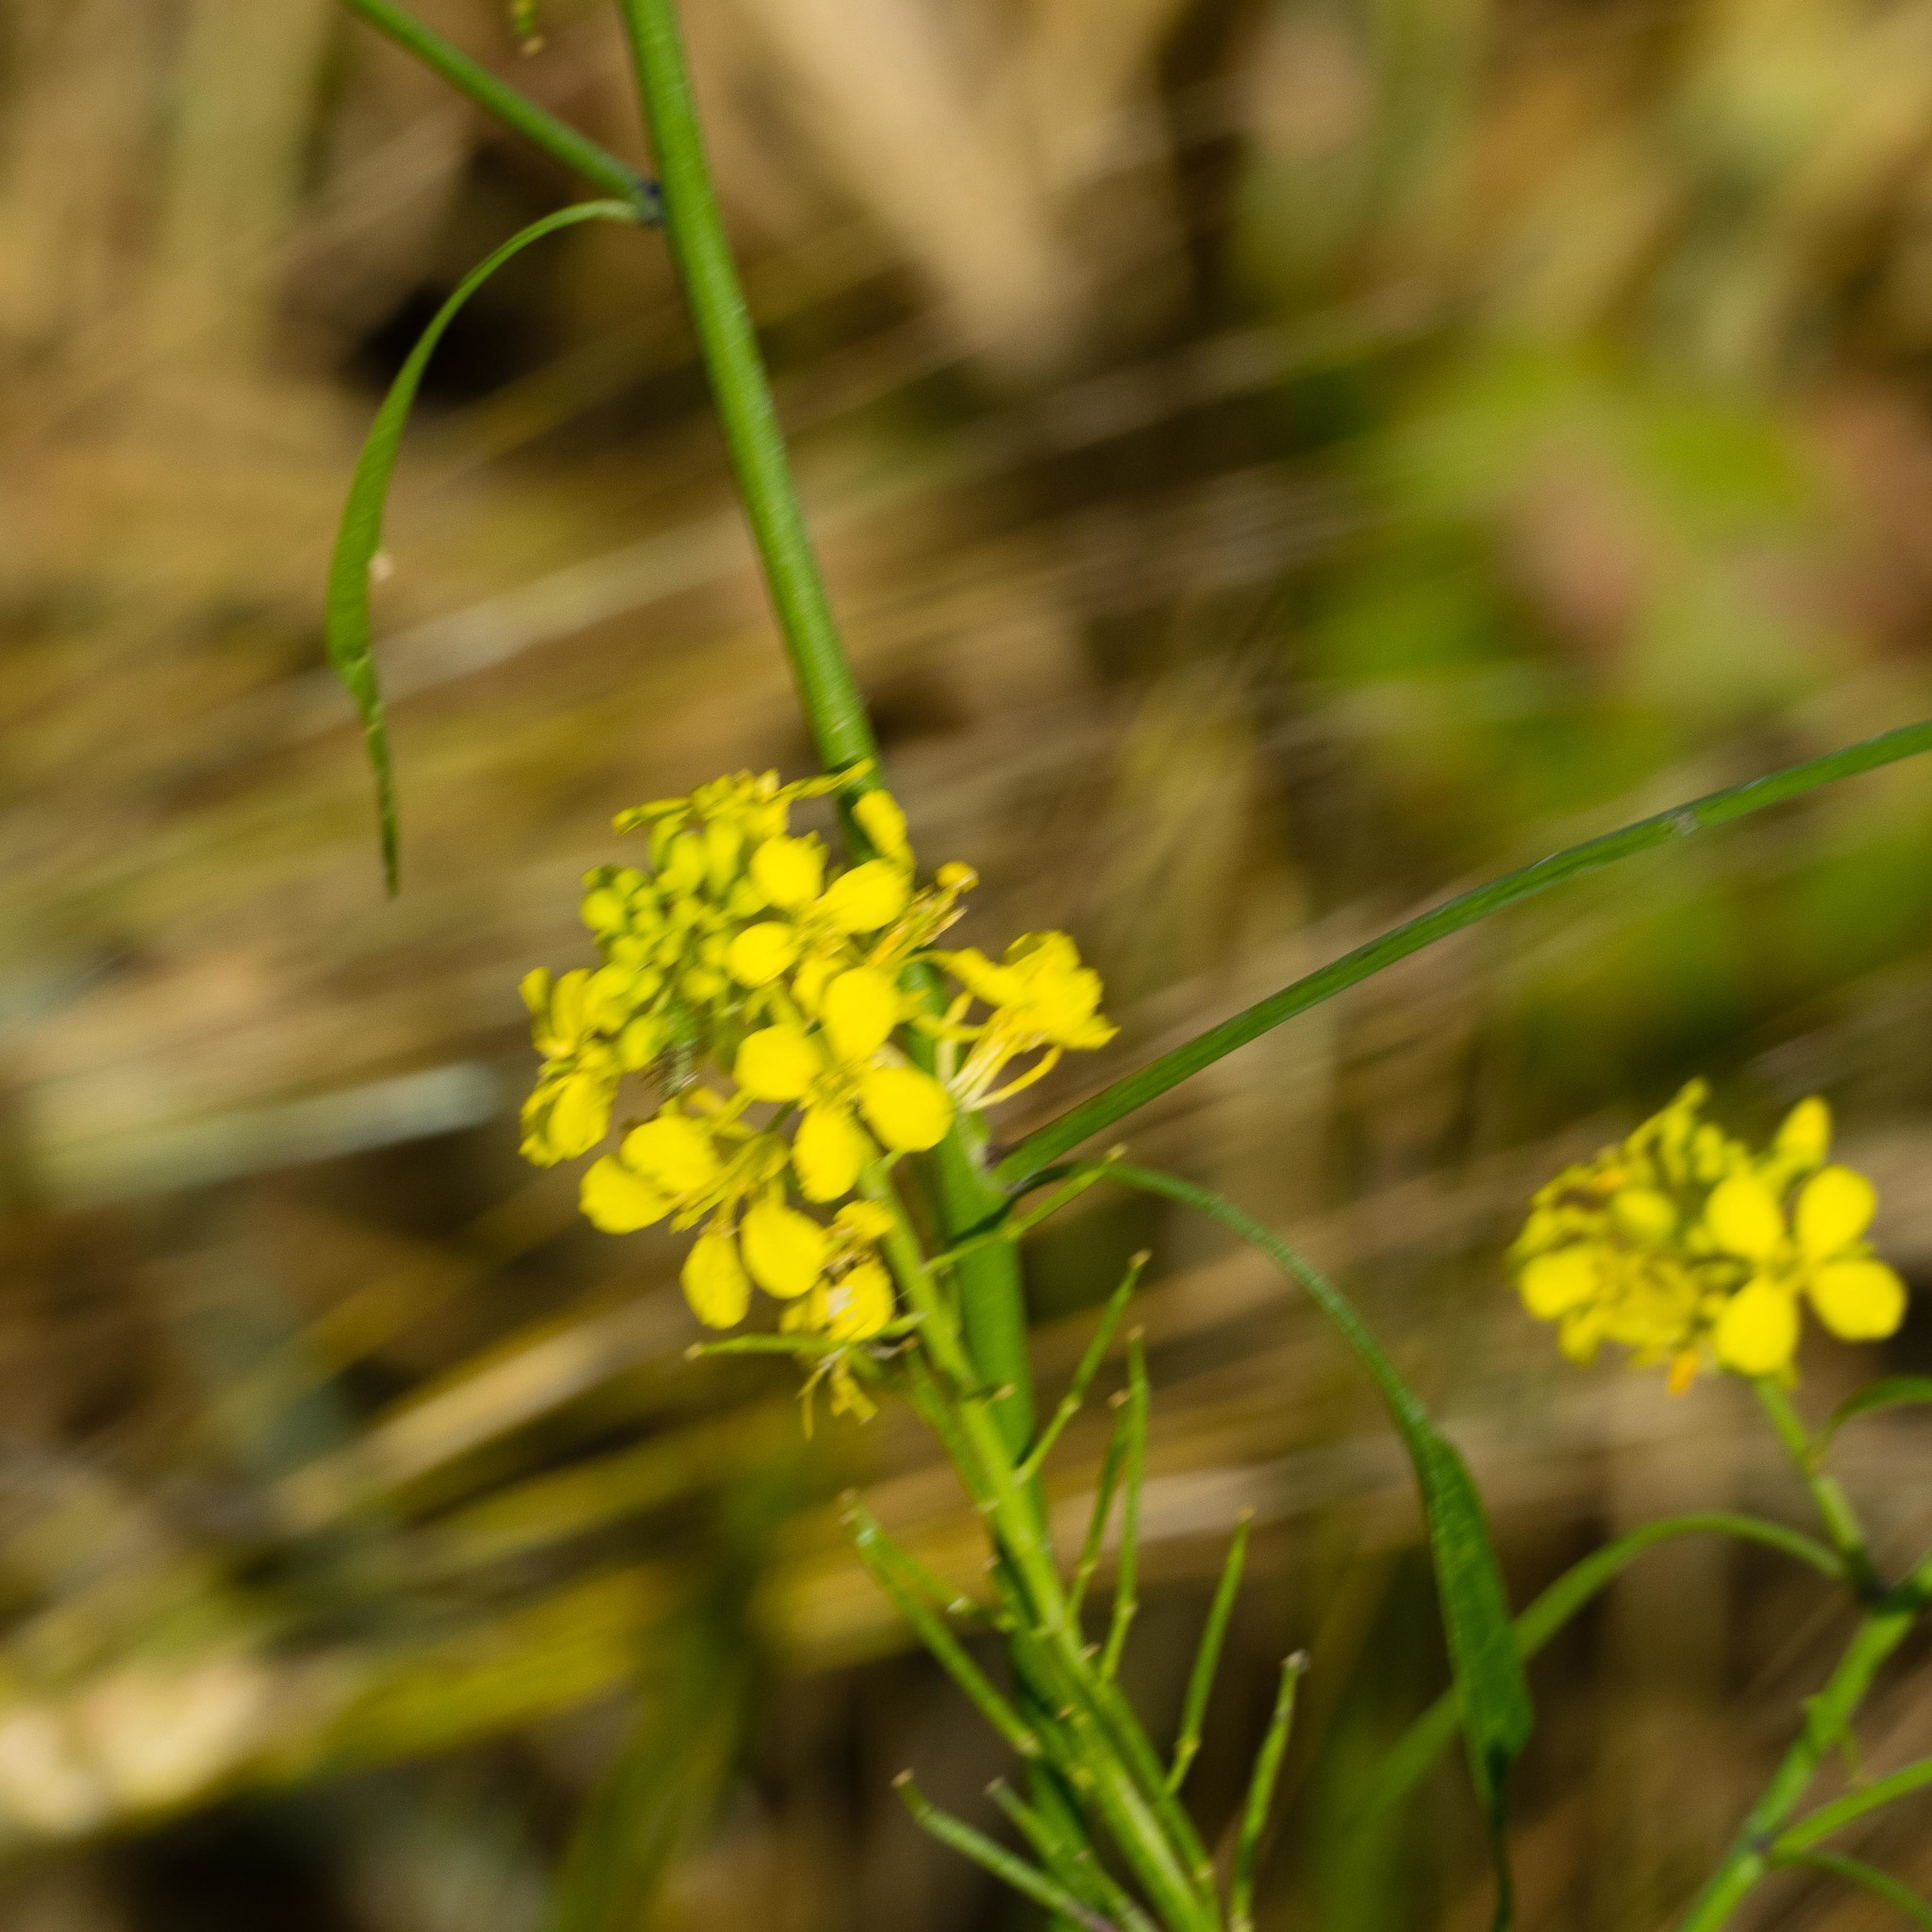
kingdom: Plantae
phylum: Tracheophyta
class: Magnoliopsida
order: Brassicales
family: Brassicaceae
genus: Sisymbrium
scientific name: Sisymbrium loeselii
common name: False london-rocket
